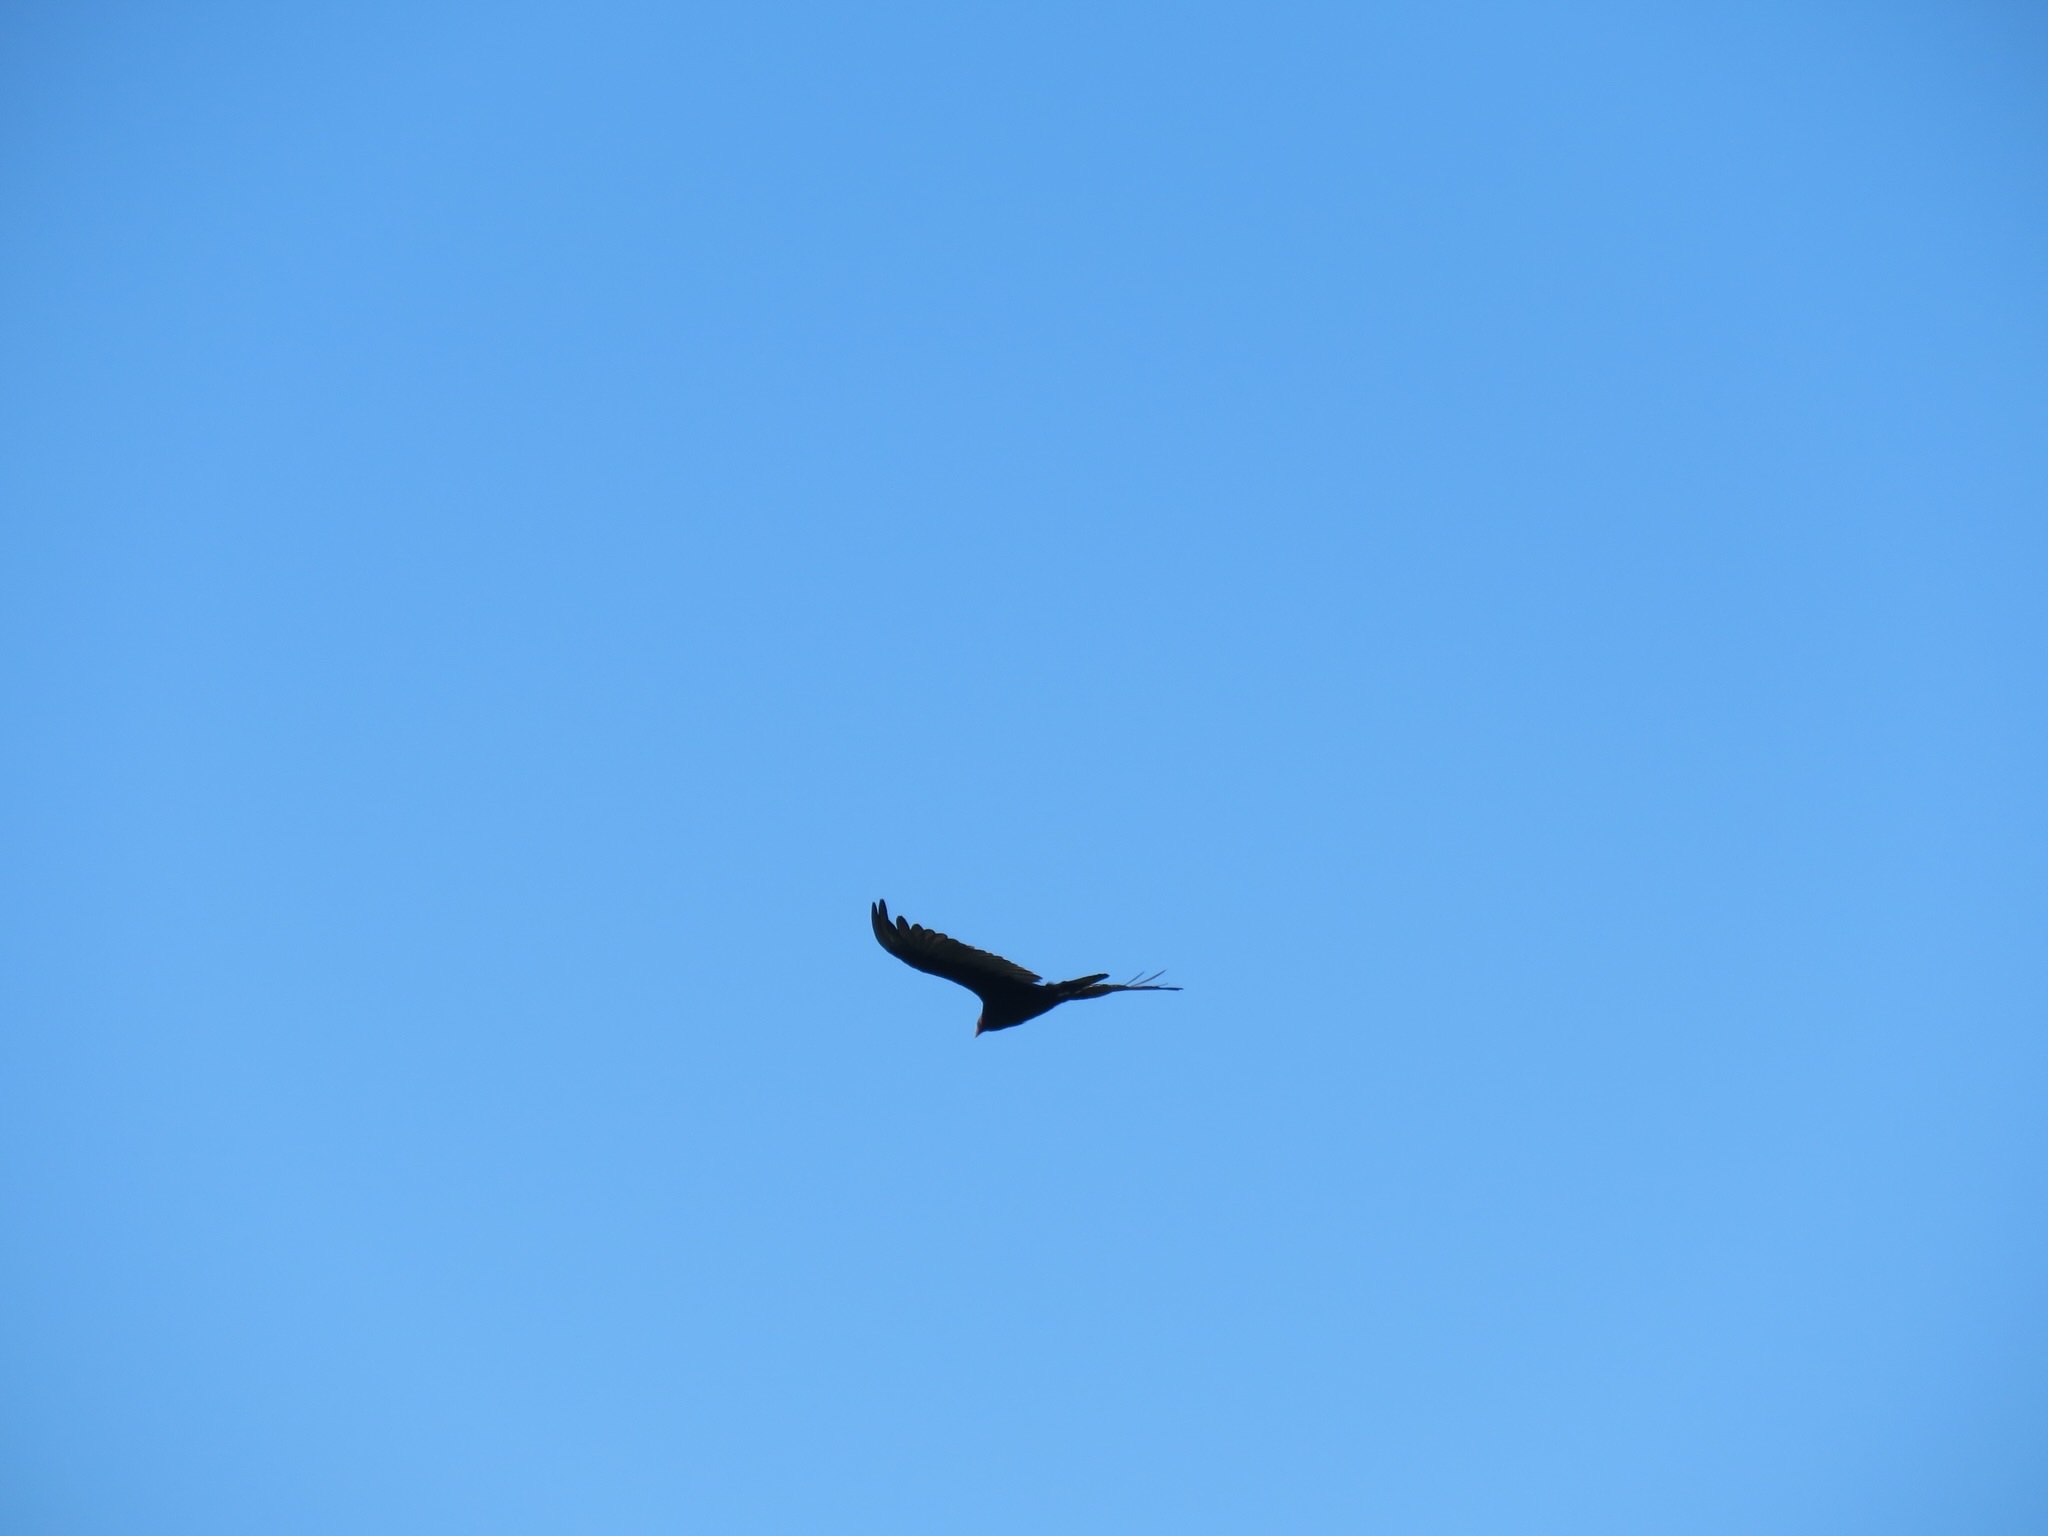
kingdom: Animalia
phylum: Chordata
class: Aves
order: Accipitriformes
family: Cathartidae
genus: Cathartes
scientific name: Cathartes aura
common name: Turkey vulture
